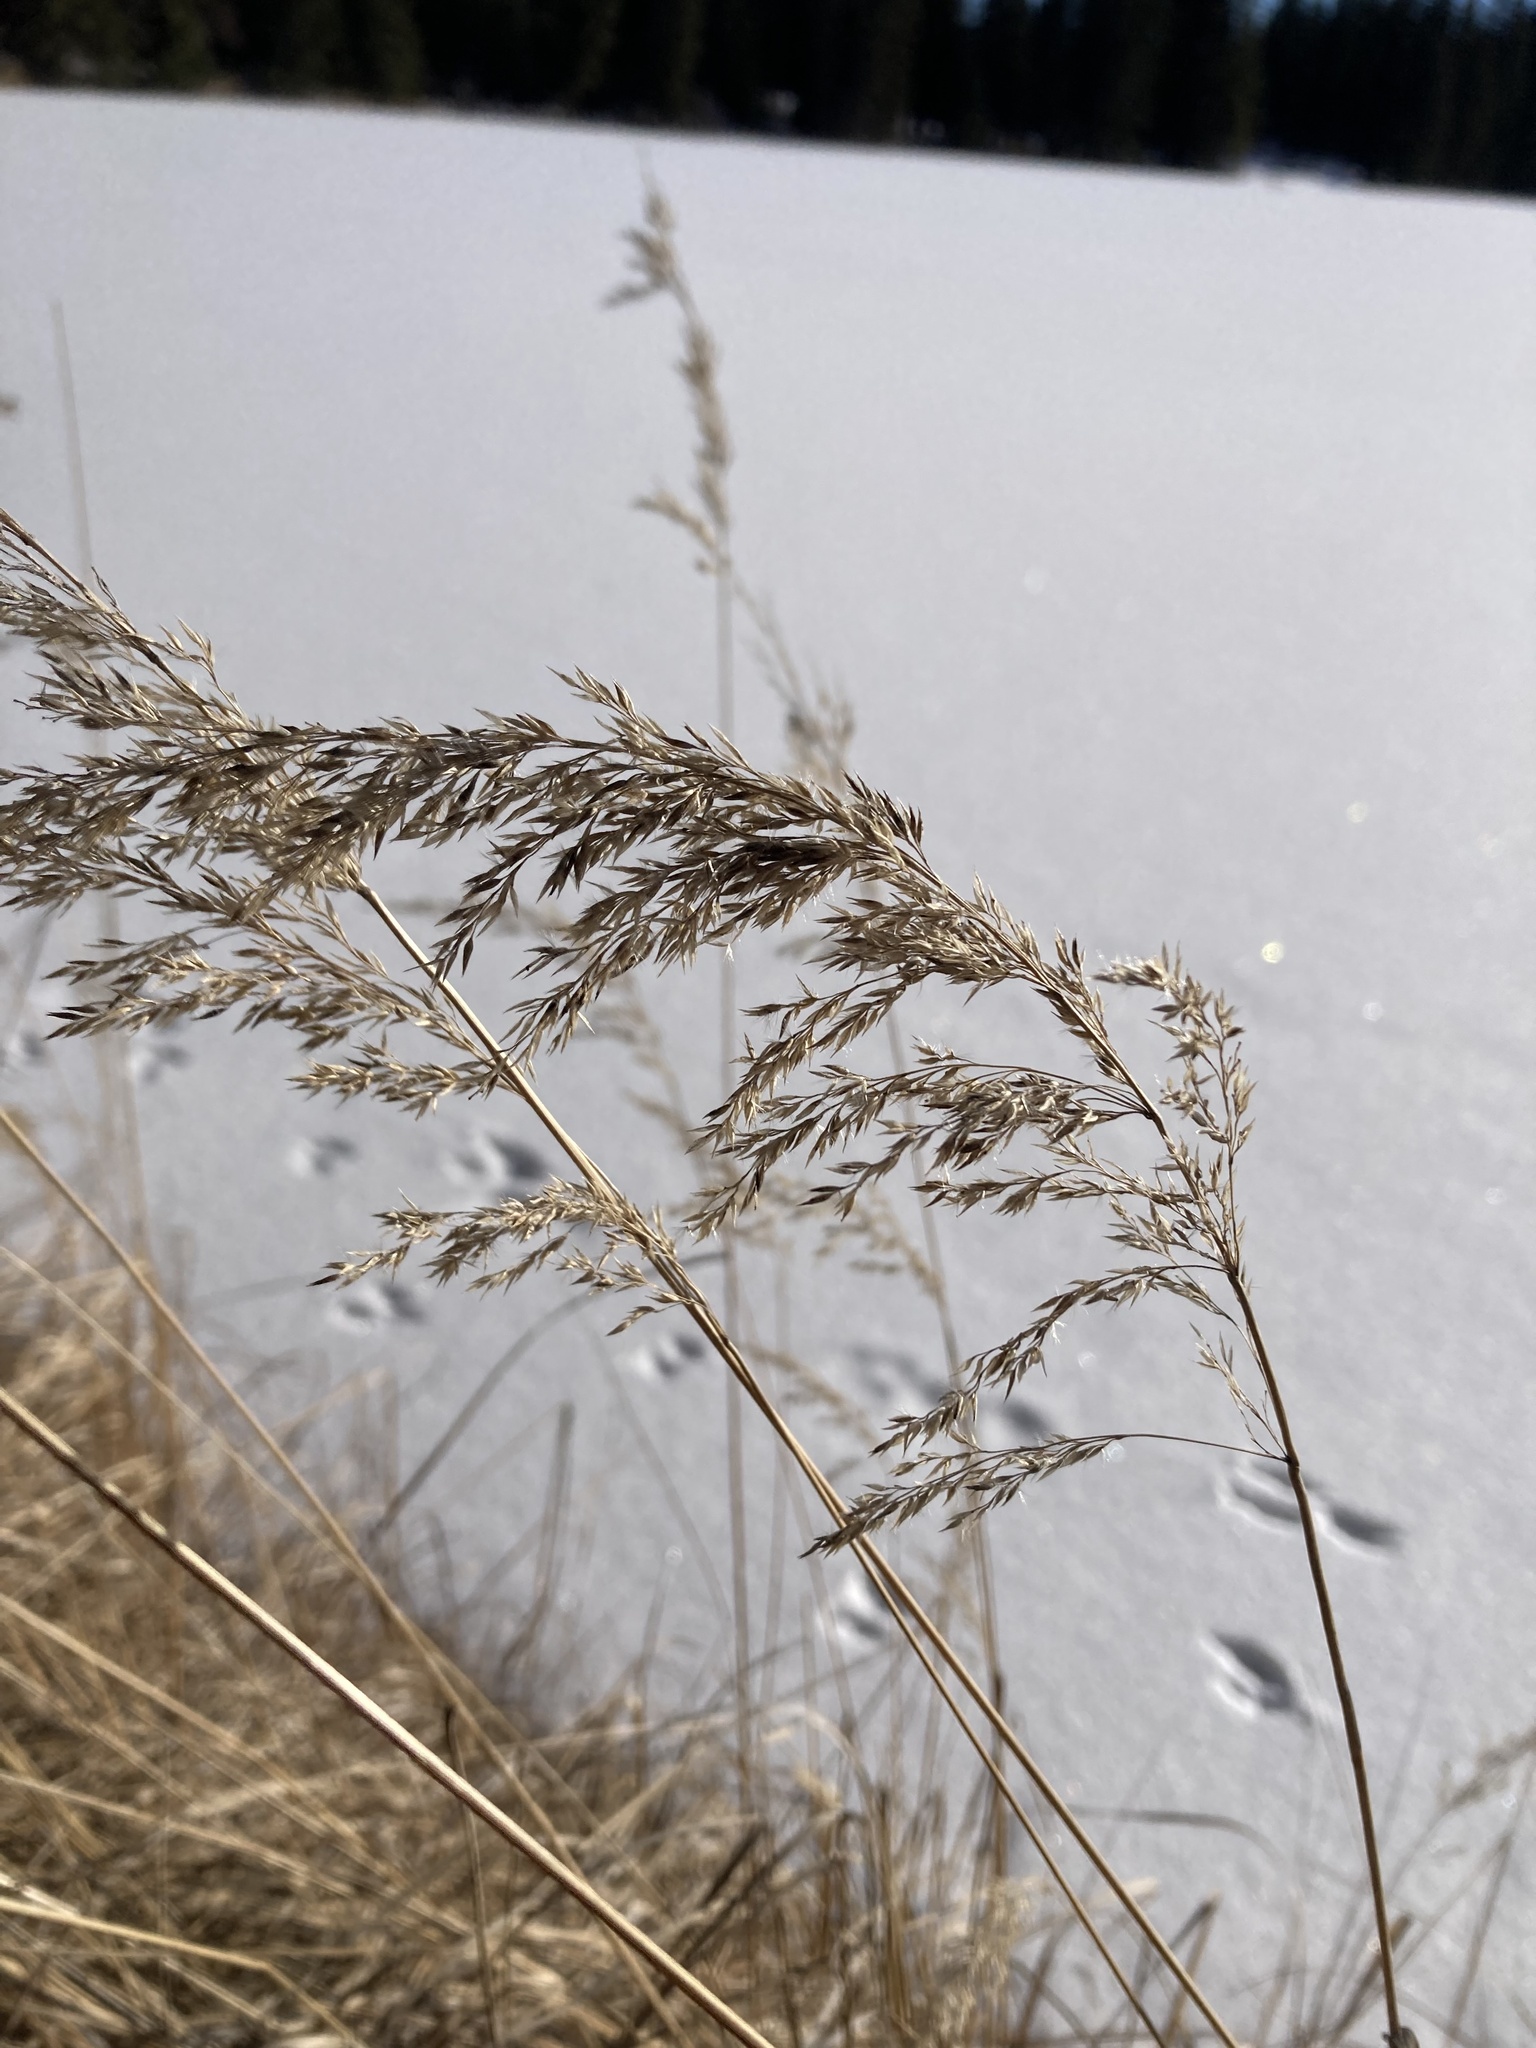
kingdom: Plantae
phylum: Tracheophyta
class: Liliopsida
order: Poales
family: Poaceae
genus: Calamagrostis
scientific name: Calamagrostis canadensis
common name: Canada bluejoint
